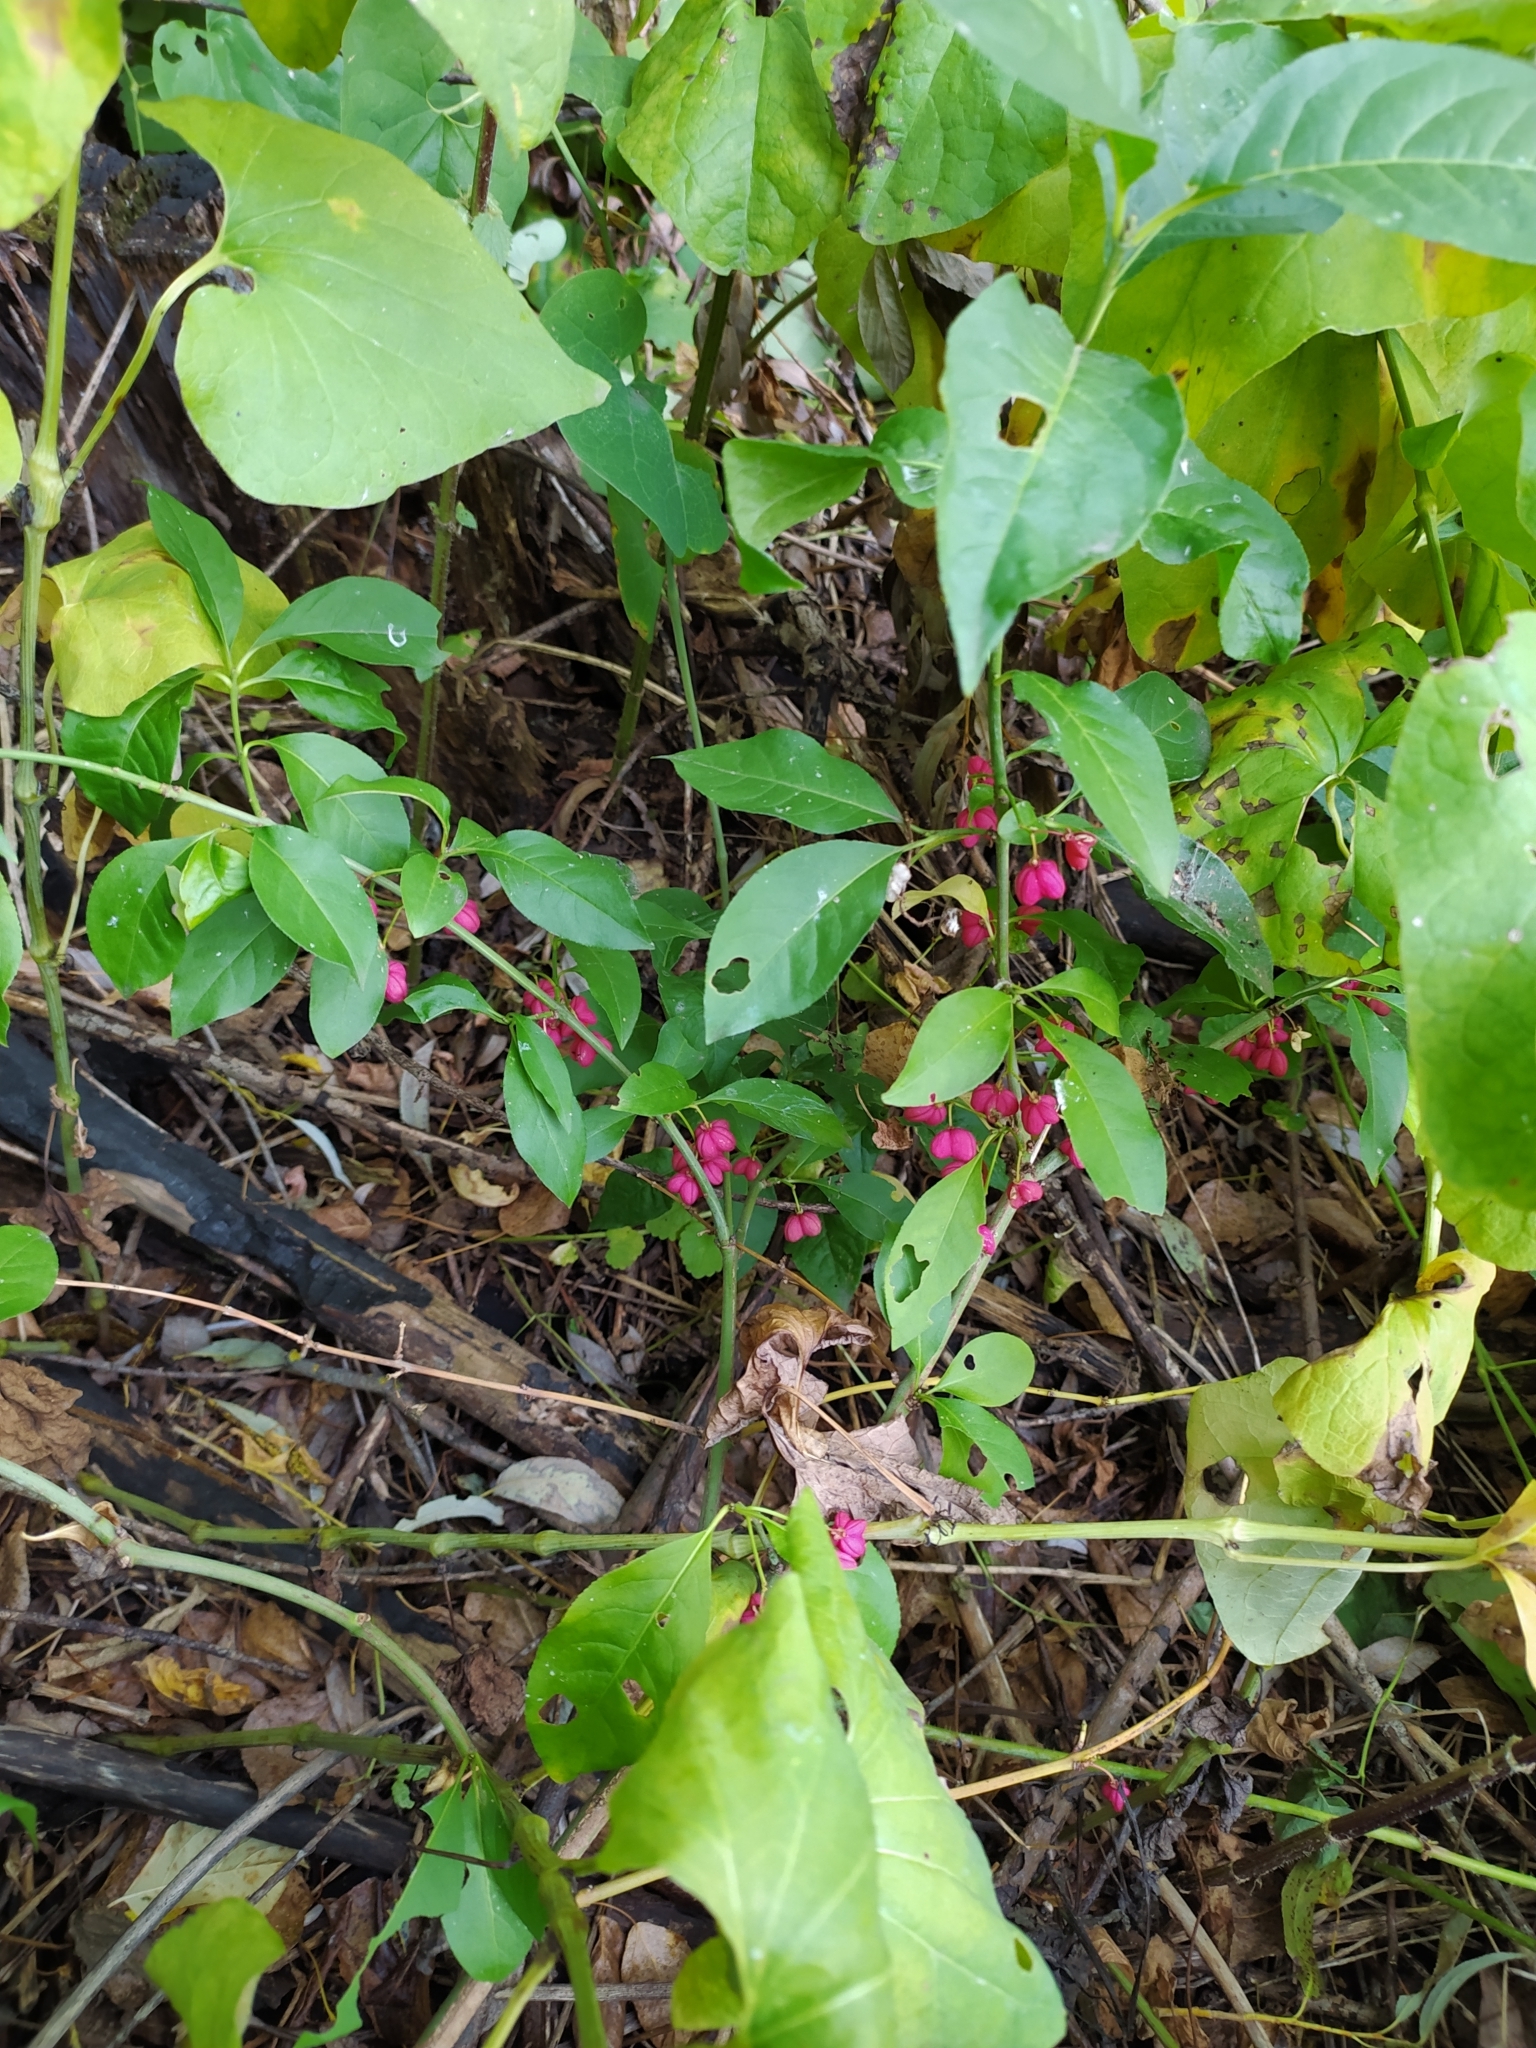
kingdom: Plantae
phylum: Tracheophyta
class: Magnoliopsida
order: Celastrales
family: Celastraceae
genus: Euonymus
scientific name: Euonymus europaeus
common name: Spindle
